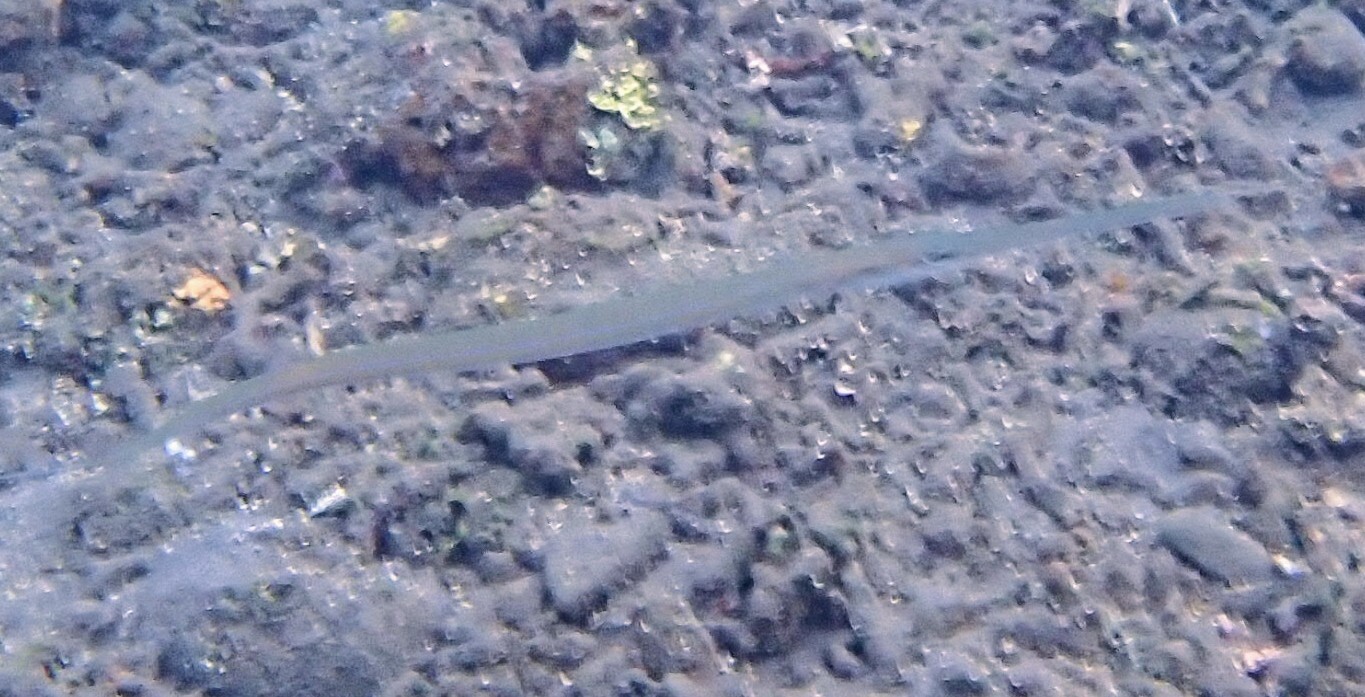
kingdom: Animalia
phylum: Chordata
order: Syngnathiformes
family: Fistulariidae
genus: Fistularia
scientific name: Fistularia commersonii
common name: Bluespotted cornetfish
